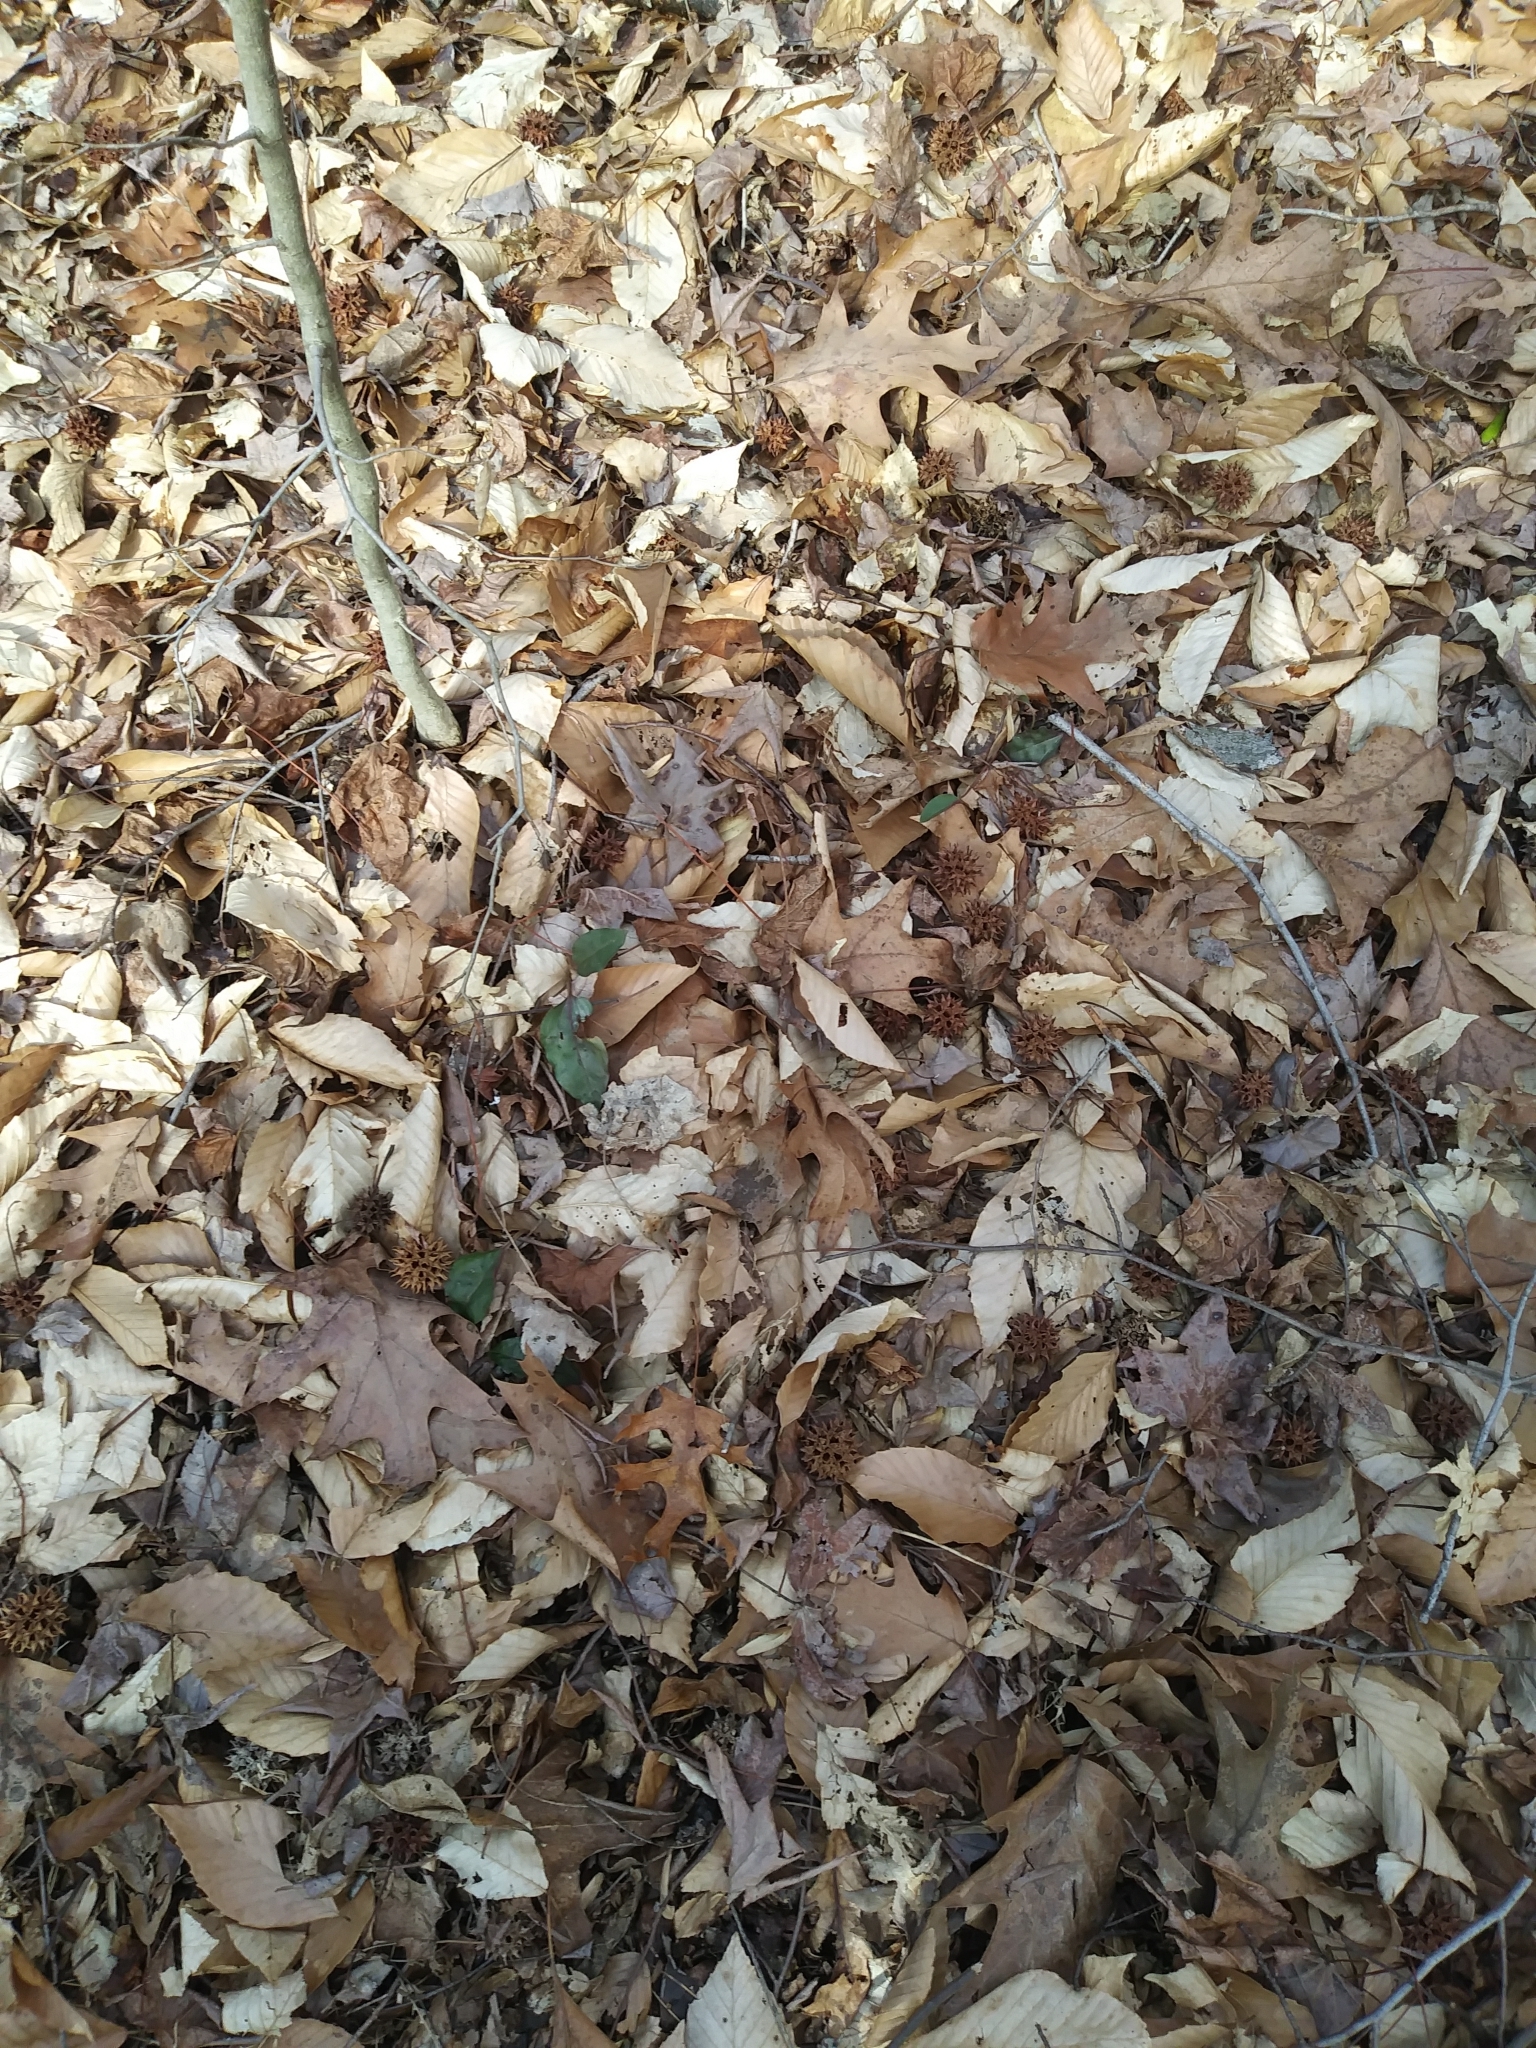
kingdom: Plantae
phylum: Tracheophyta
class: Liliopsida
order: Asparagales
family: Orchidaceae
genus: Tipularia
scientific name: Tipularia discolor
